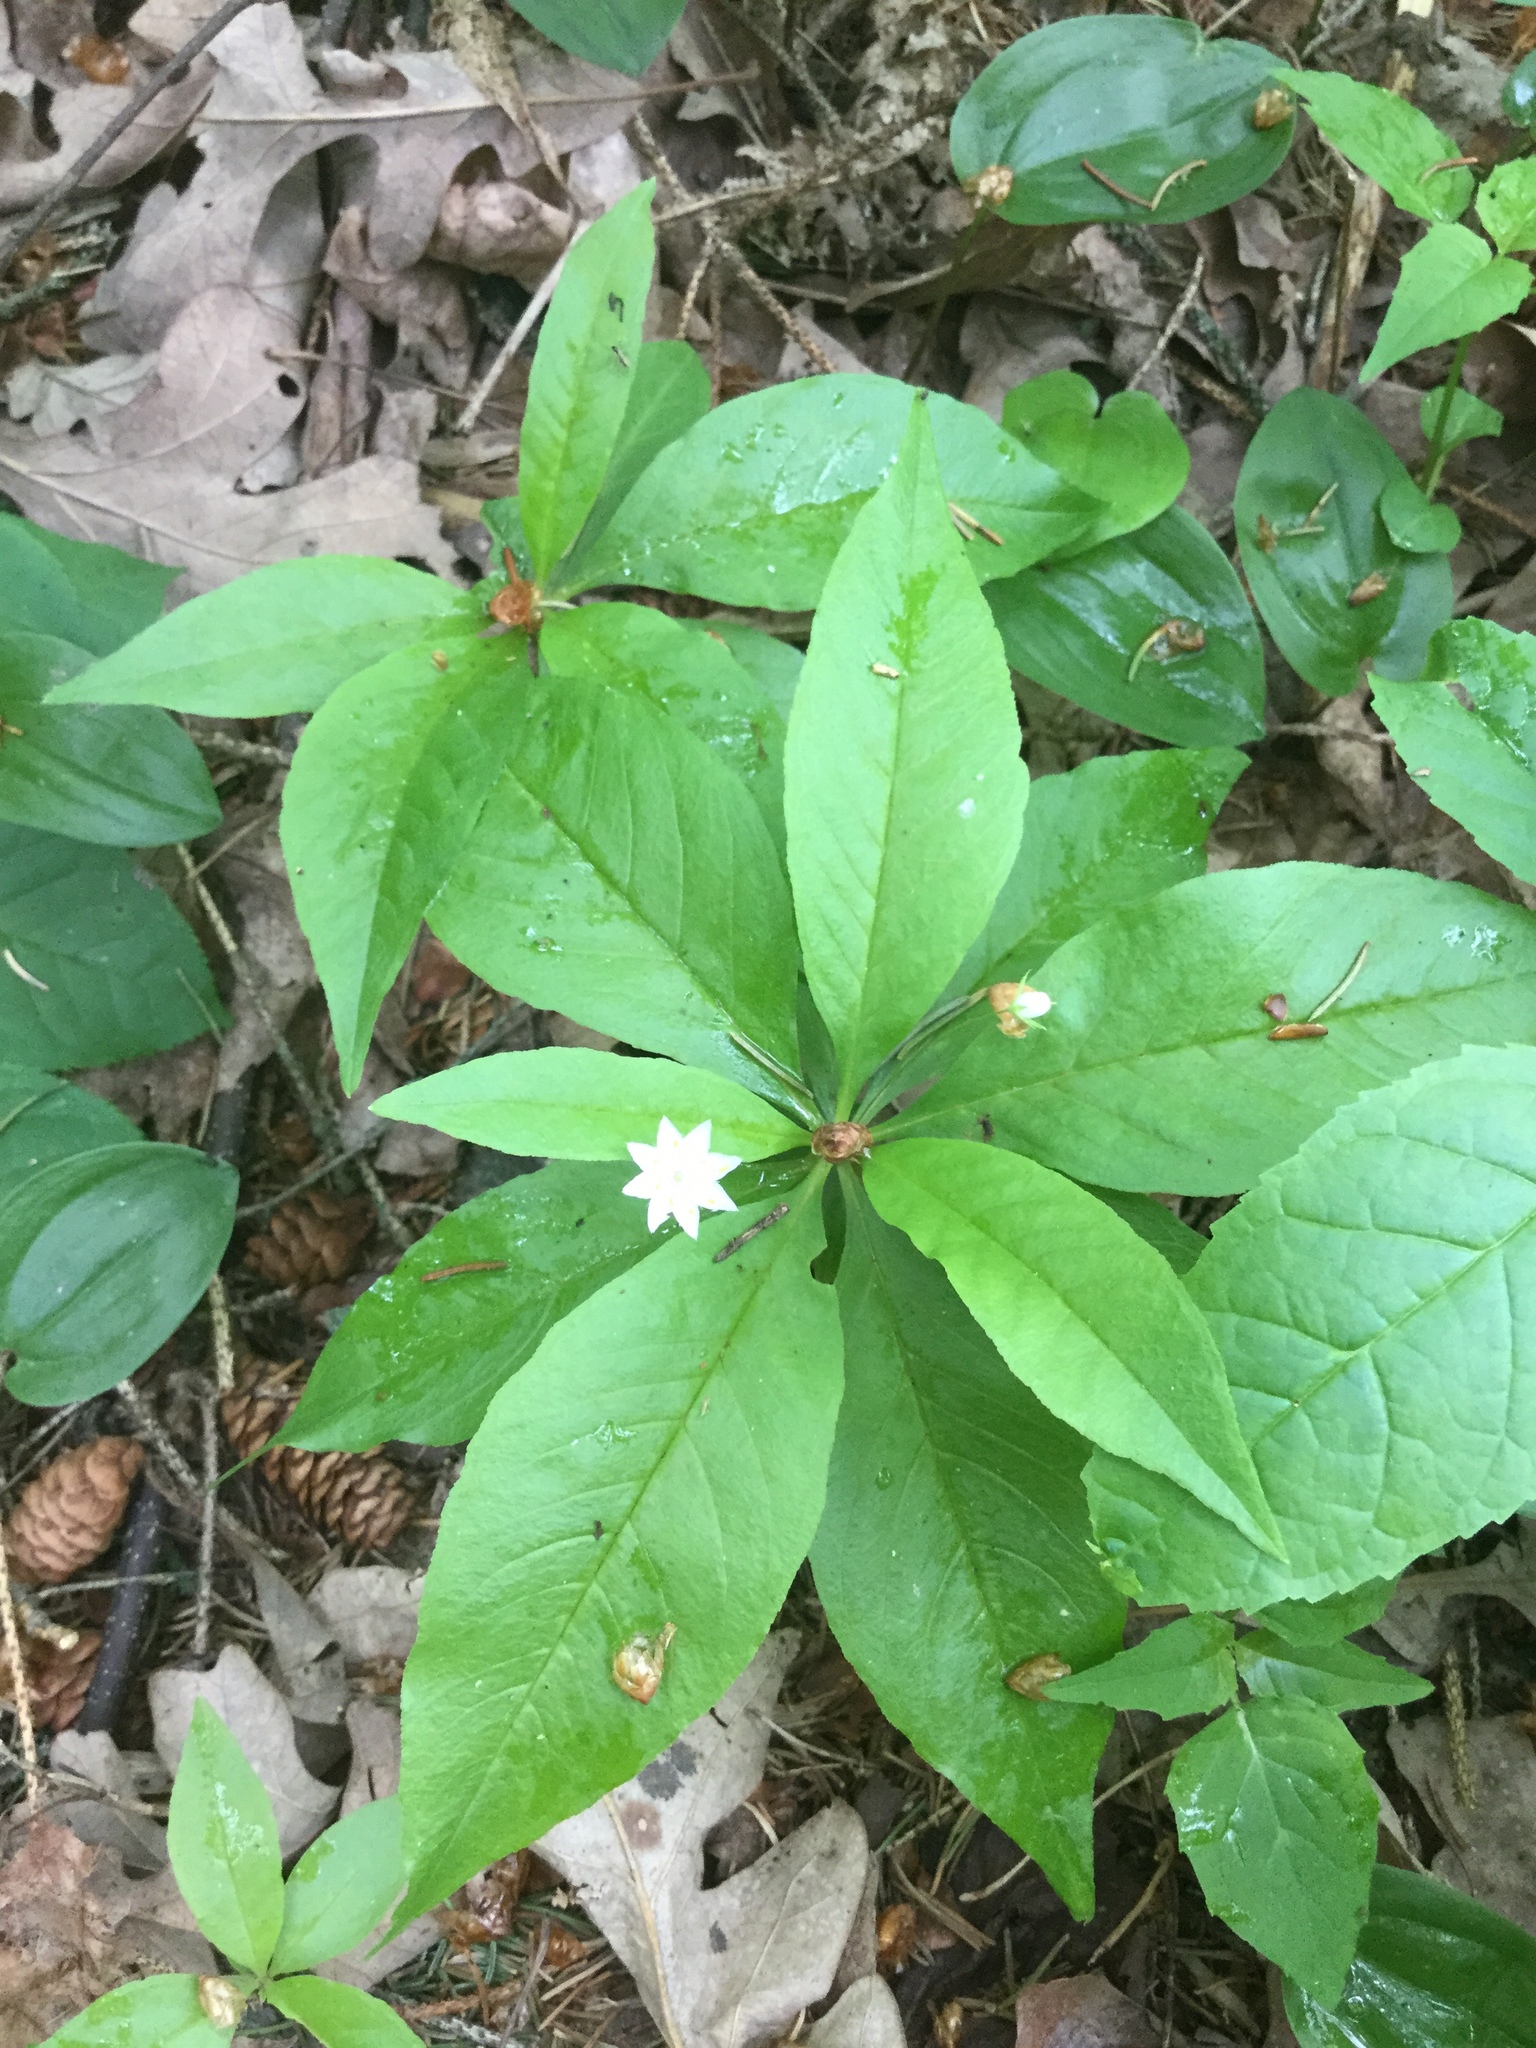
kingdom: Plantae
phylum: Tracheophyta
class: Magnoliopsida
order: Ericales
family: Primulaceae
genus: Lysimachia
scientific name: Lysimachia borealis
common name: American starflower
